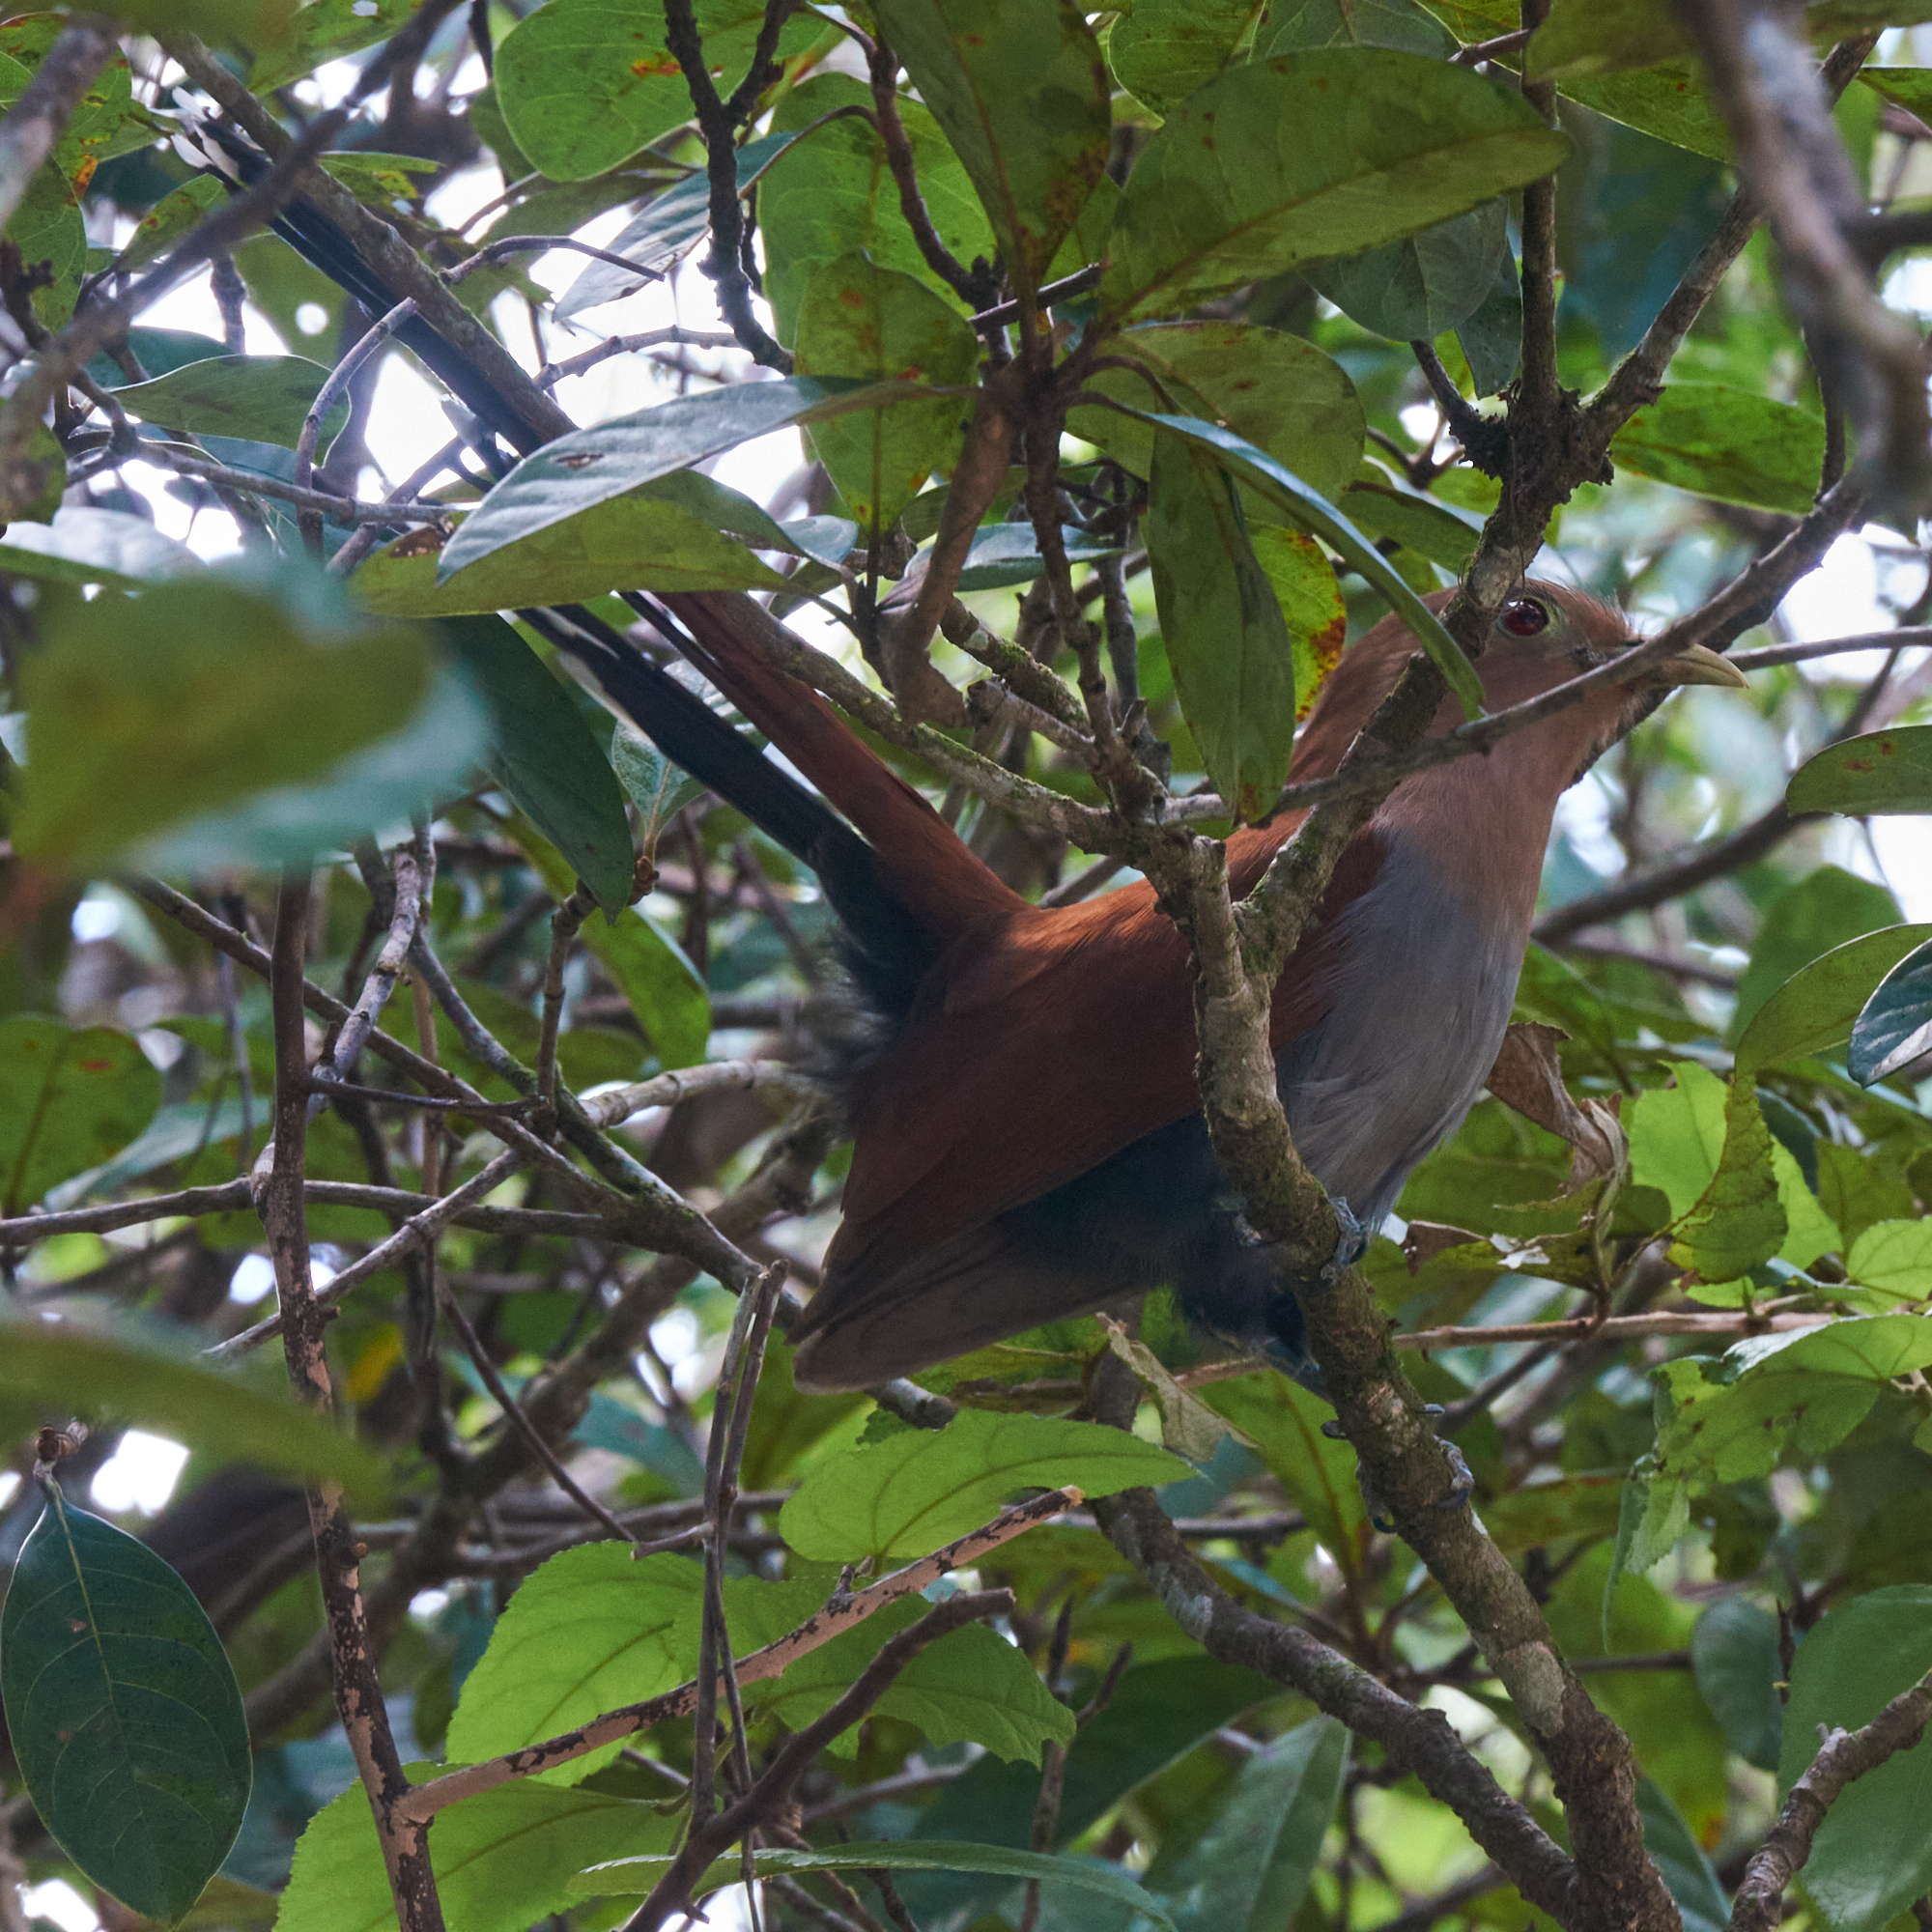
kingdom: Animalia
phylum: Chordata
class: Aves
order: Cuculiformes
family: Cuculidae
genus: Piaya
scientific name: Piaya cayana
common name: Squirrel cuckoo
